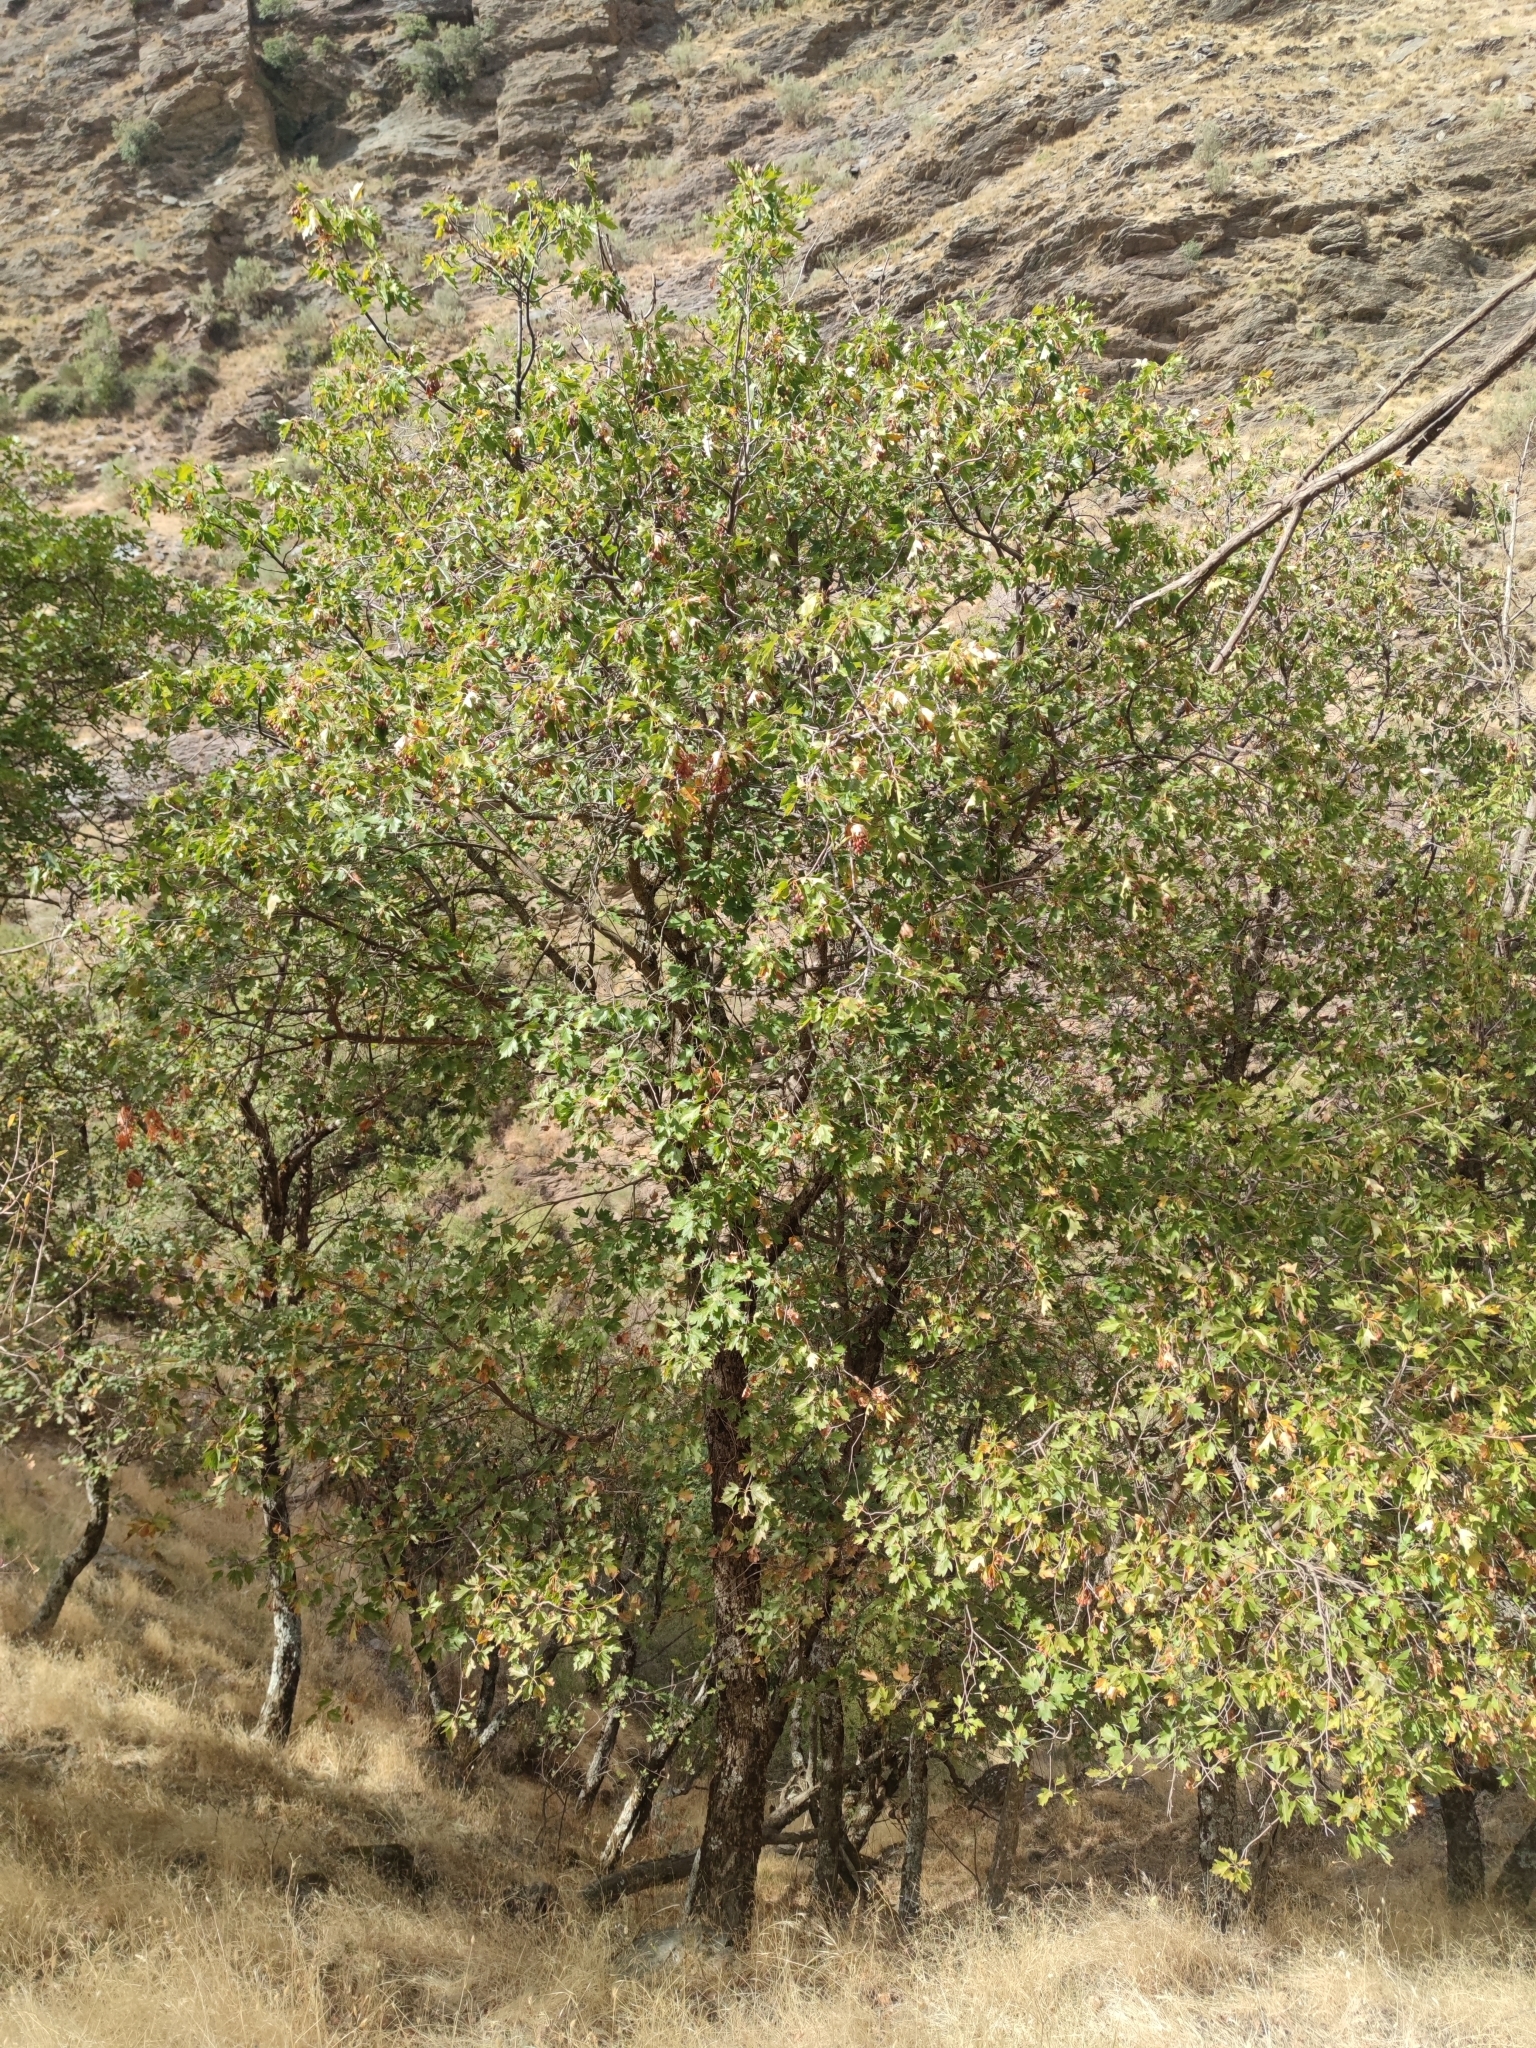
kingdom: Plantae
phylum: Tracheophyta
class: Magnoliopsida
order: Rosales
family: Rosaceae
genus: Torminalis
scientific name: Torminalis glaberrima
